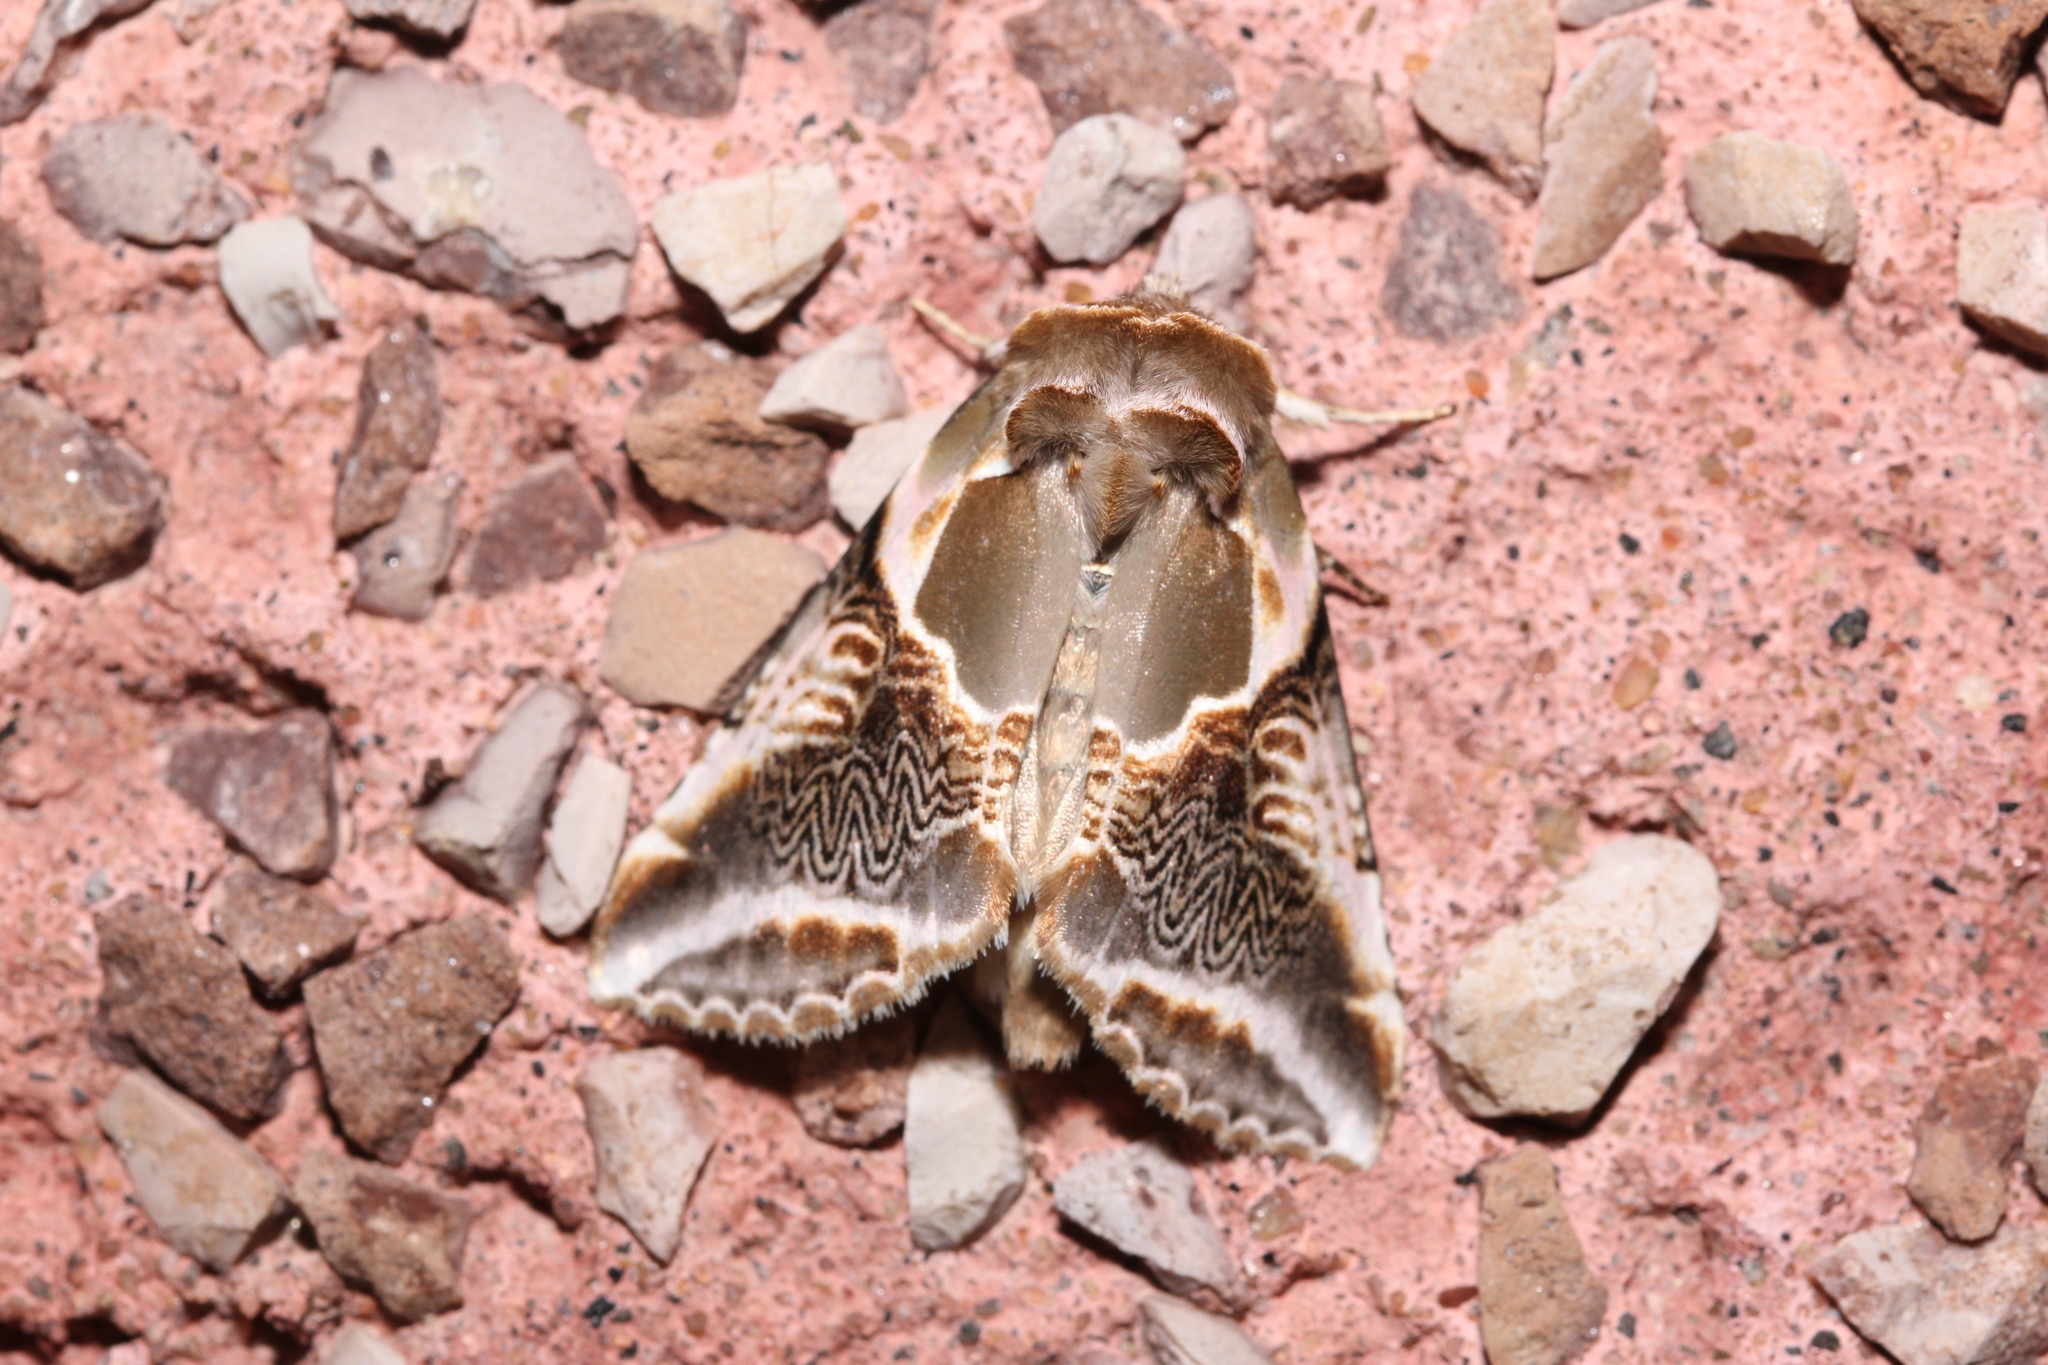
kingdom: Animalia
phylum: Arthropoda
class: Insecta
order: Lepidoptera
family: Drepanidae
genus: Habrosyne
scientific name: Habrosyne scripta
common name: Lettered habrosyne moth
